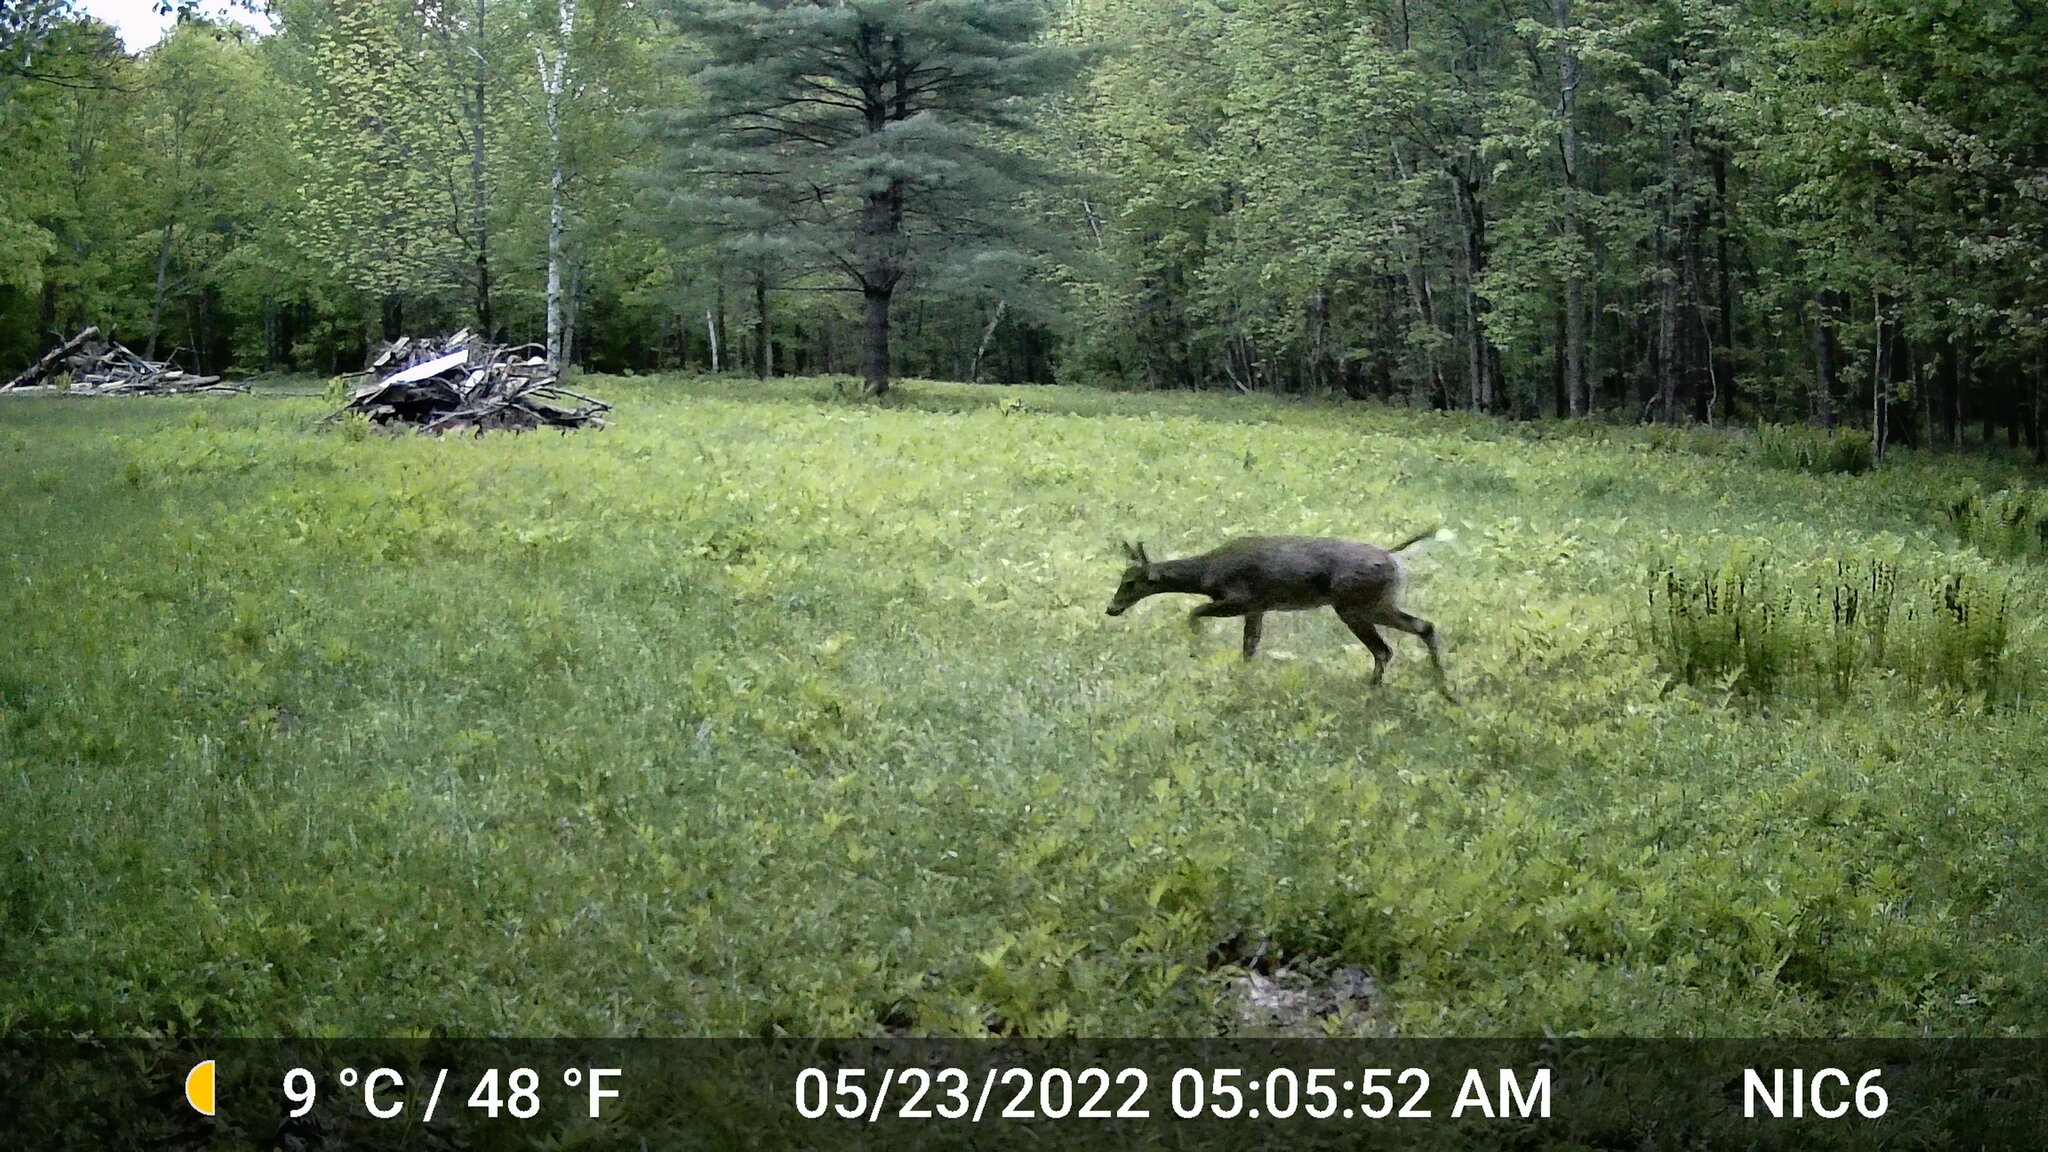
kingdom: Animalia
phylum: Chordata
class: Mammalia
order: Artiodactyla
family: Cervidae
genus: Odocoileus
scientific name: Odocoileus virginianus
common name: White-tailed deer
